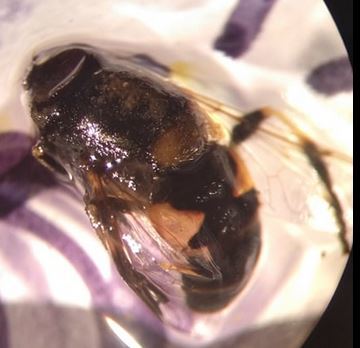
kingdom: Animalia
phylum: Arthropoda
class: Insecta
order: Diptera
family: Syrphidae
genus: Eristalis
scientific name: Eristalis stipator
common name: Yellow-shouldered drone fly
